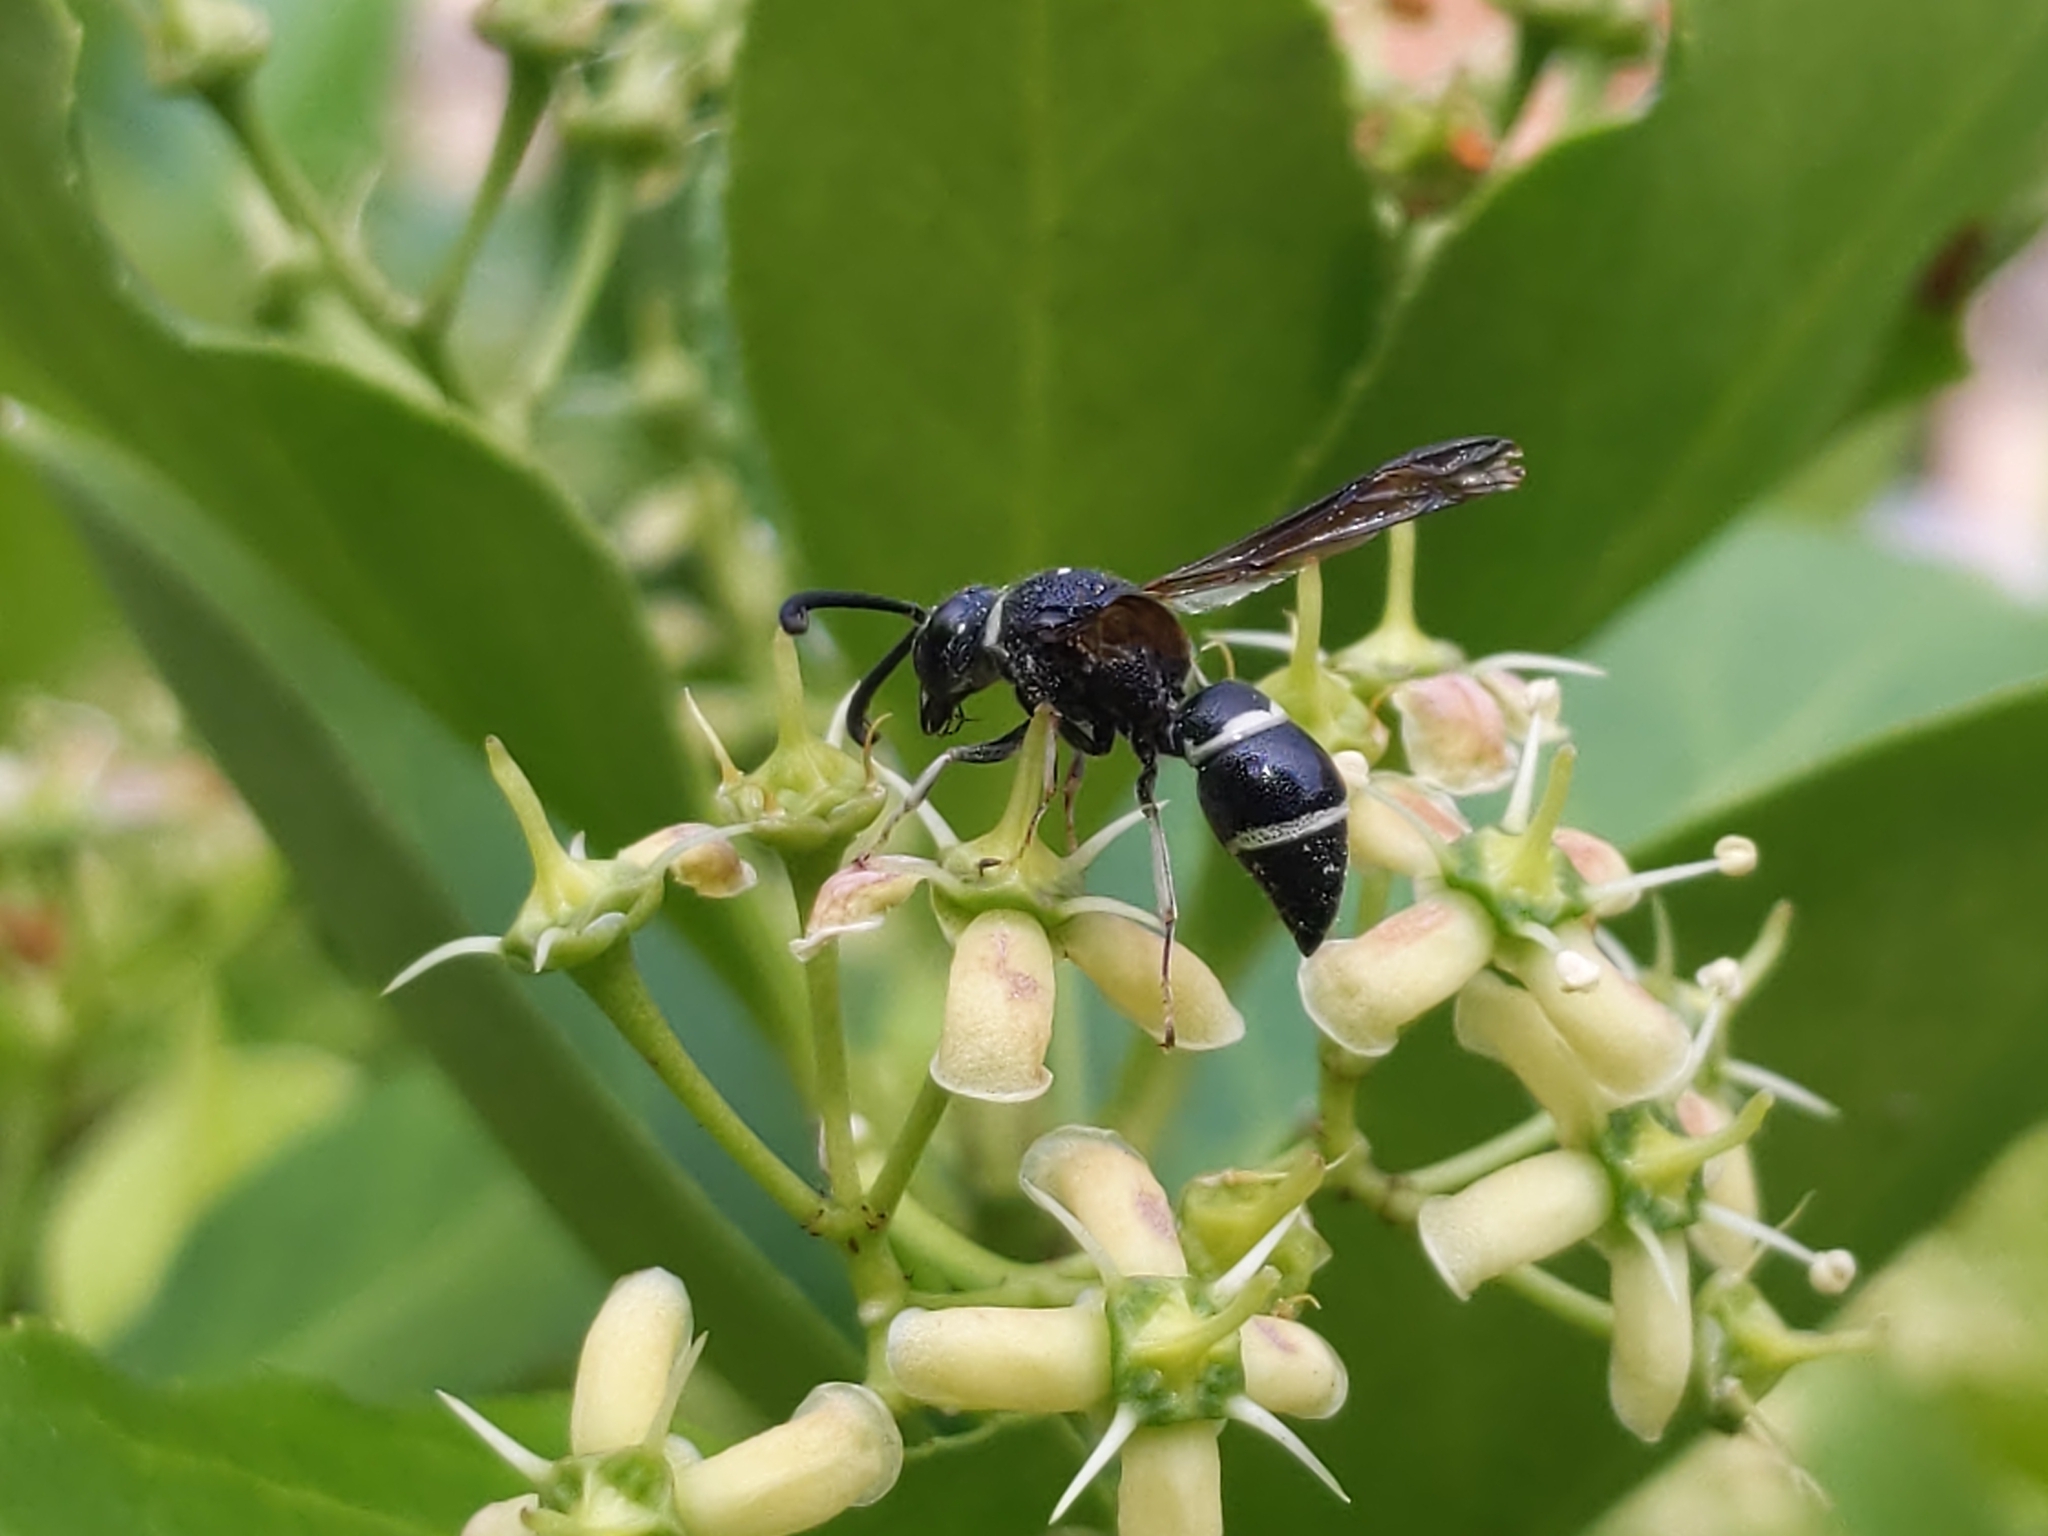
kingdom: Animalia
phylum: Arthropoda
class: Insecta
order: Hymenoptera
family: Eumenidae
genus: Euodynerus
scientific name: Euodynerus schwarzi
